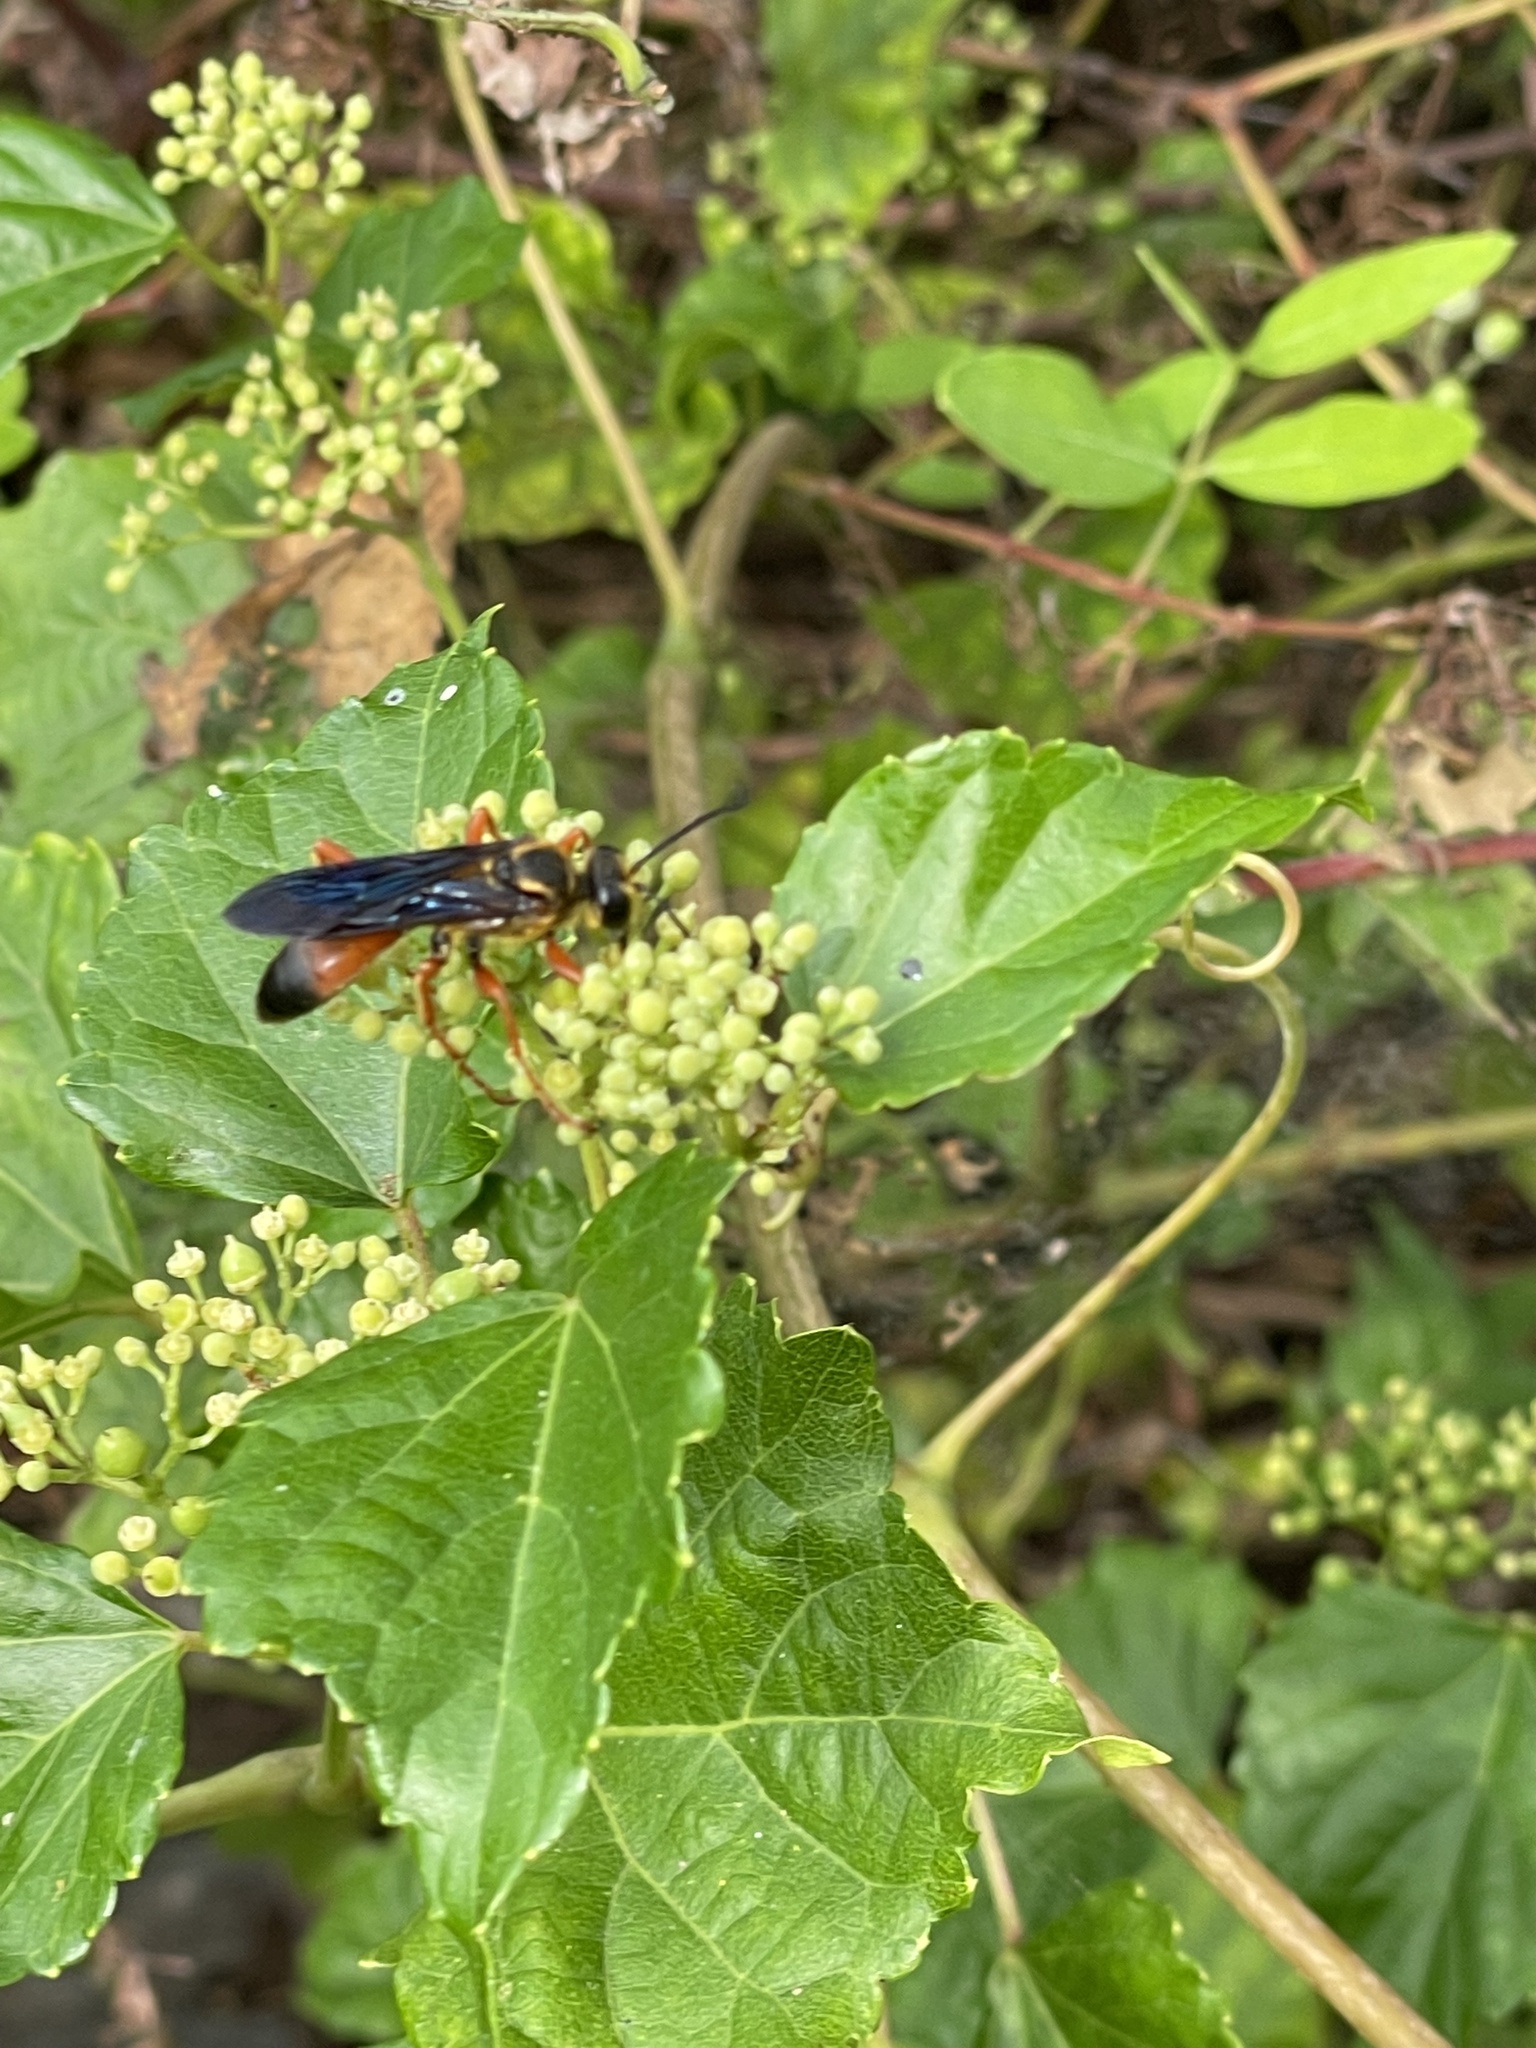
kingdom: Animalia
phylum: Arthropoda
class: Insecta
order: Hymenoptera
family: Sphecidae
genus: Sphex
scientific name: Sphex ichneumoneus
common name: Great golden digger wasp
